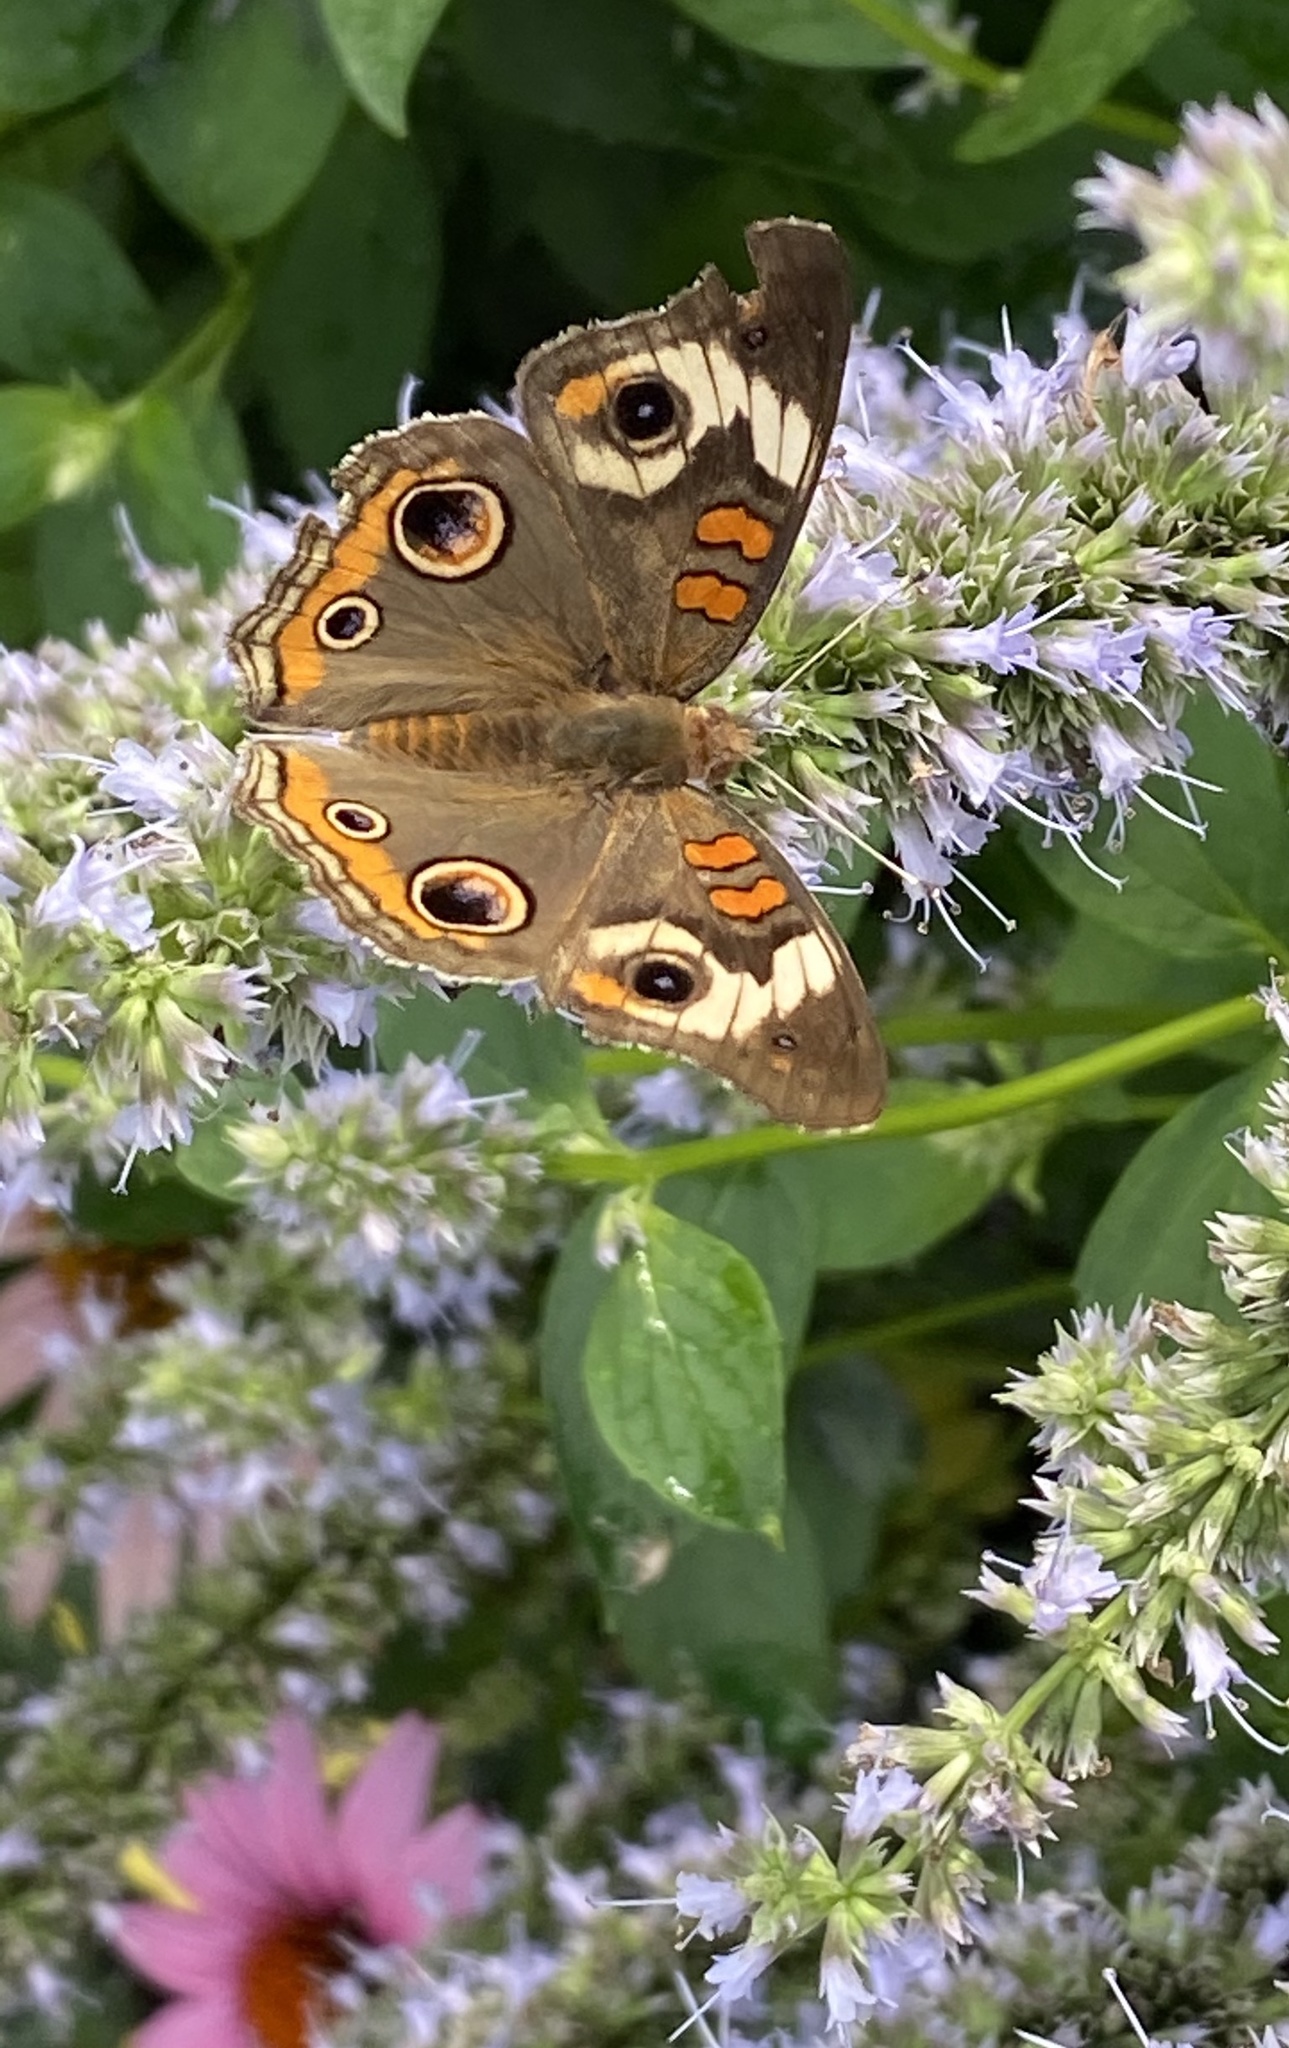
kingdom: Animalia
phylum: Arthropoda
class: Insecta
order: Lepidoptera
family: Nymphalidae
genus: Junonia
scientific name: Junonia coenia
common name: Common buckeye
